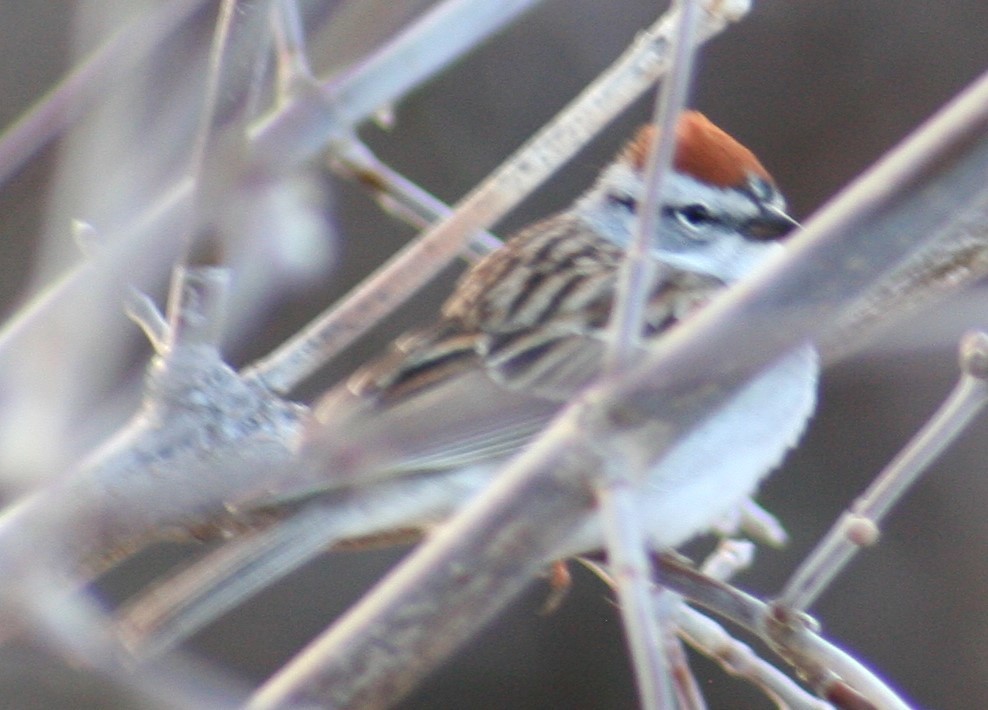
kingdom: Animalia
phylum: Chordata
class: Aves
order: Passeriformes
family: Passerellidae
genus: Spizella
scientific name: Spizella passerina
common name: Chipping sparrow
